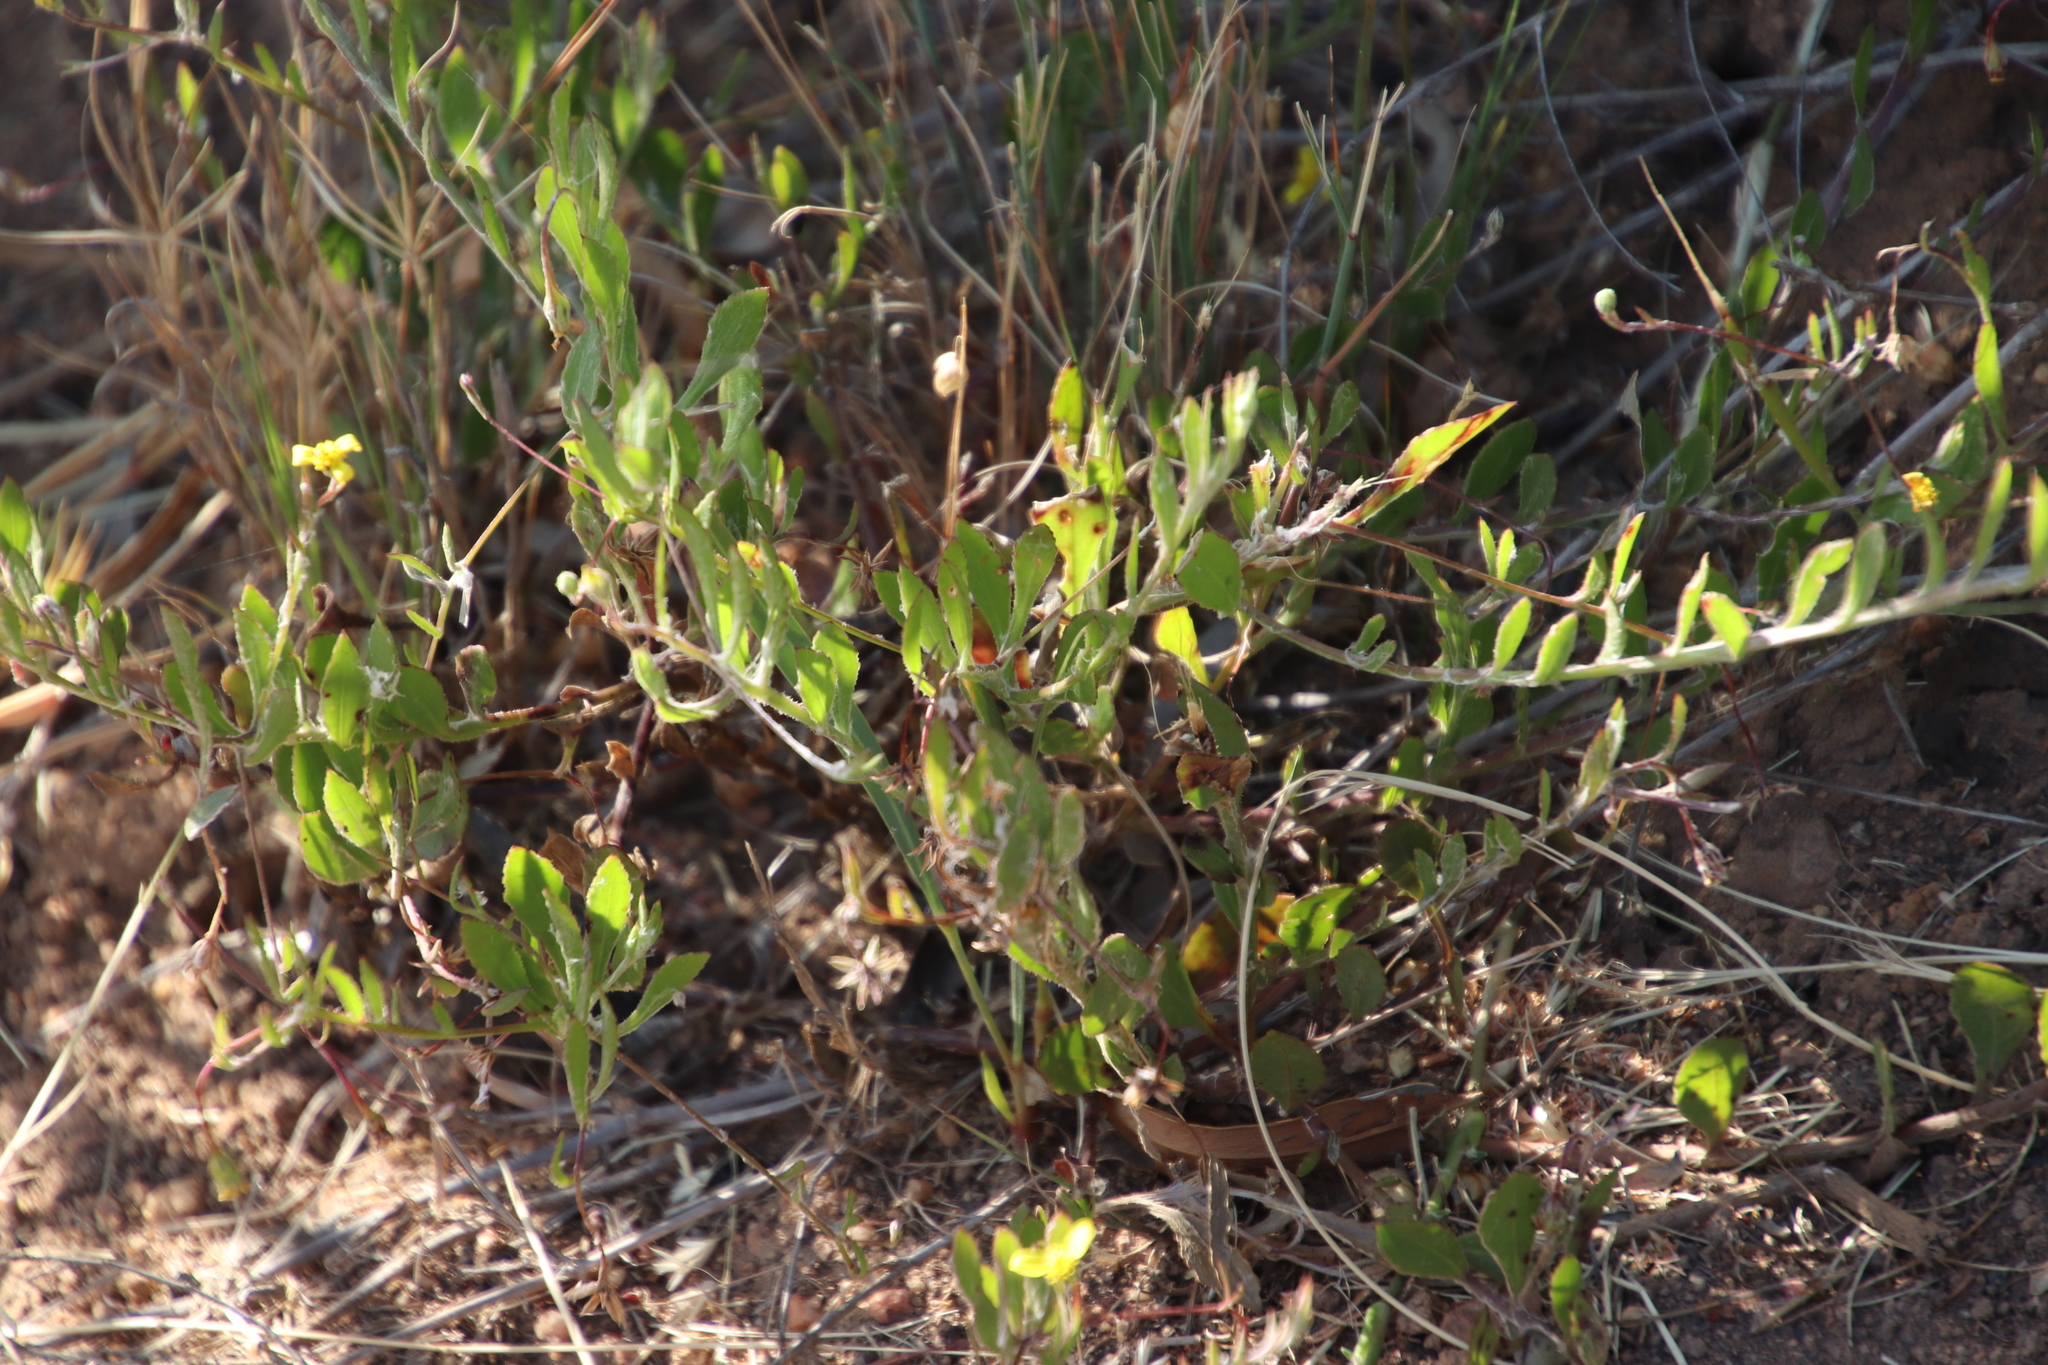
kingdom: Plantae
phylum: Tracheophyta
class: Magnoliopsida
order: Asterales
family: Asteraceae
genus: Osteospermum
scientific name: Osteospermum ciliatum
